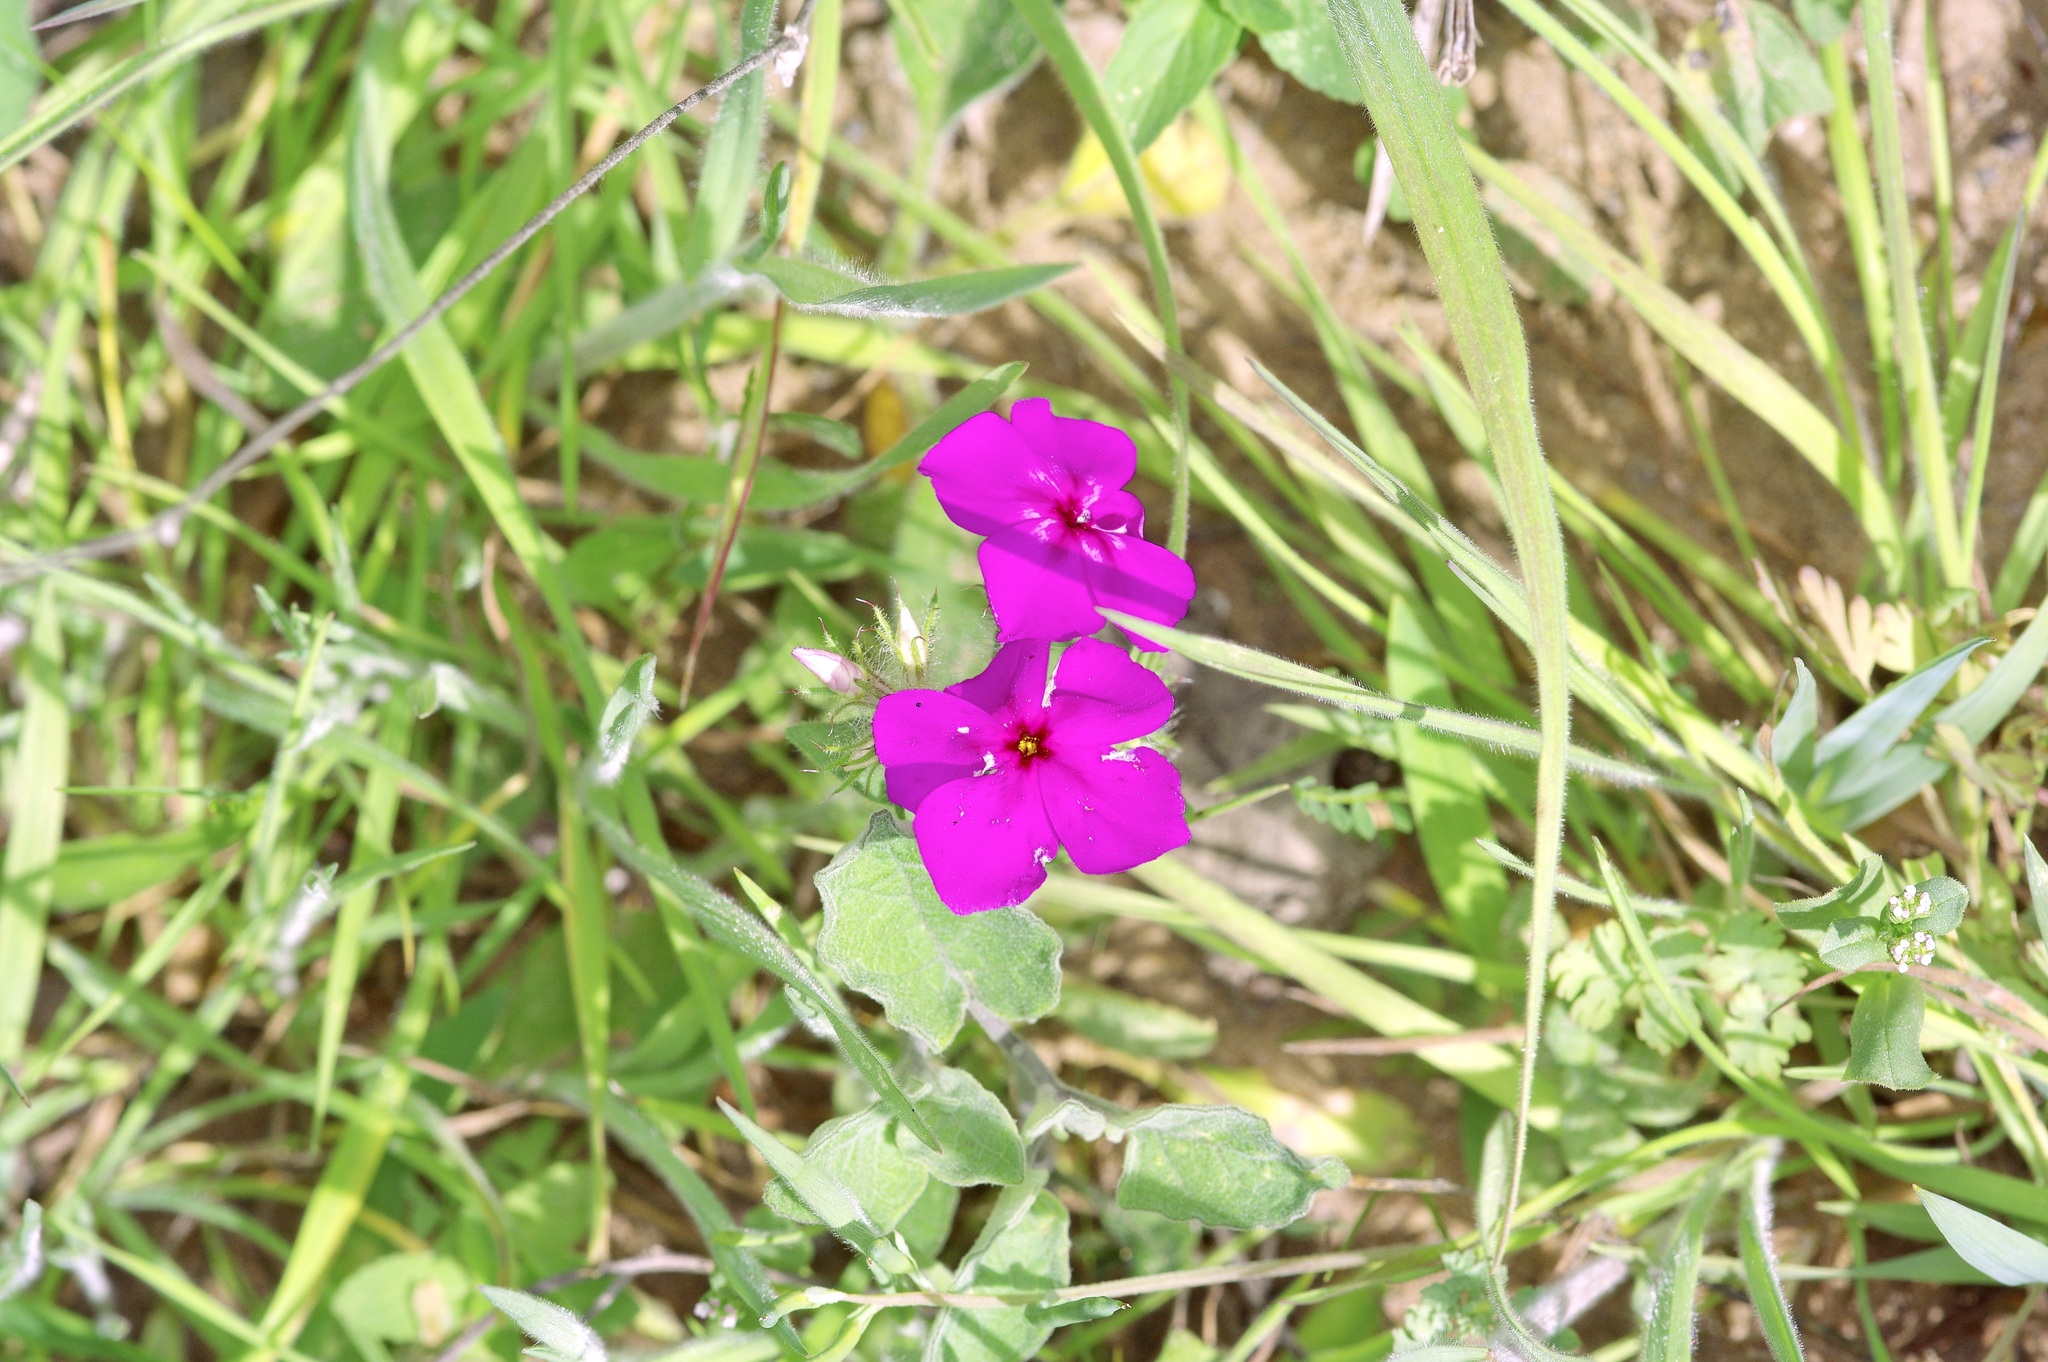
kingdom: Plantae
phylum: Tracheophyta
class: Magnoliopsida
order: Ericales
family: Polemoniaceae
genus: Phlox
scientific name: Phlox drummondii
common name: Drummond's phlox
